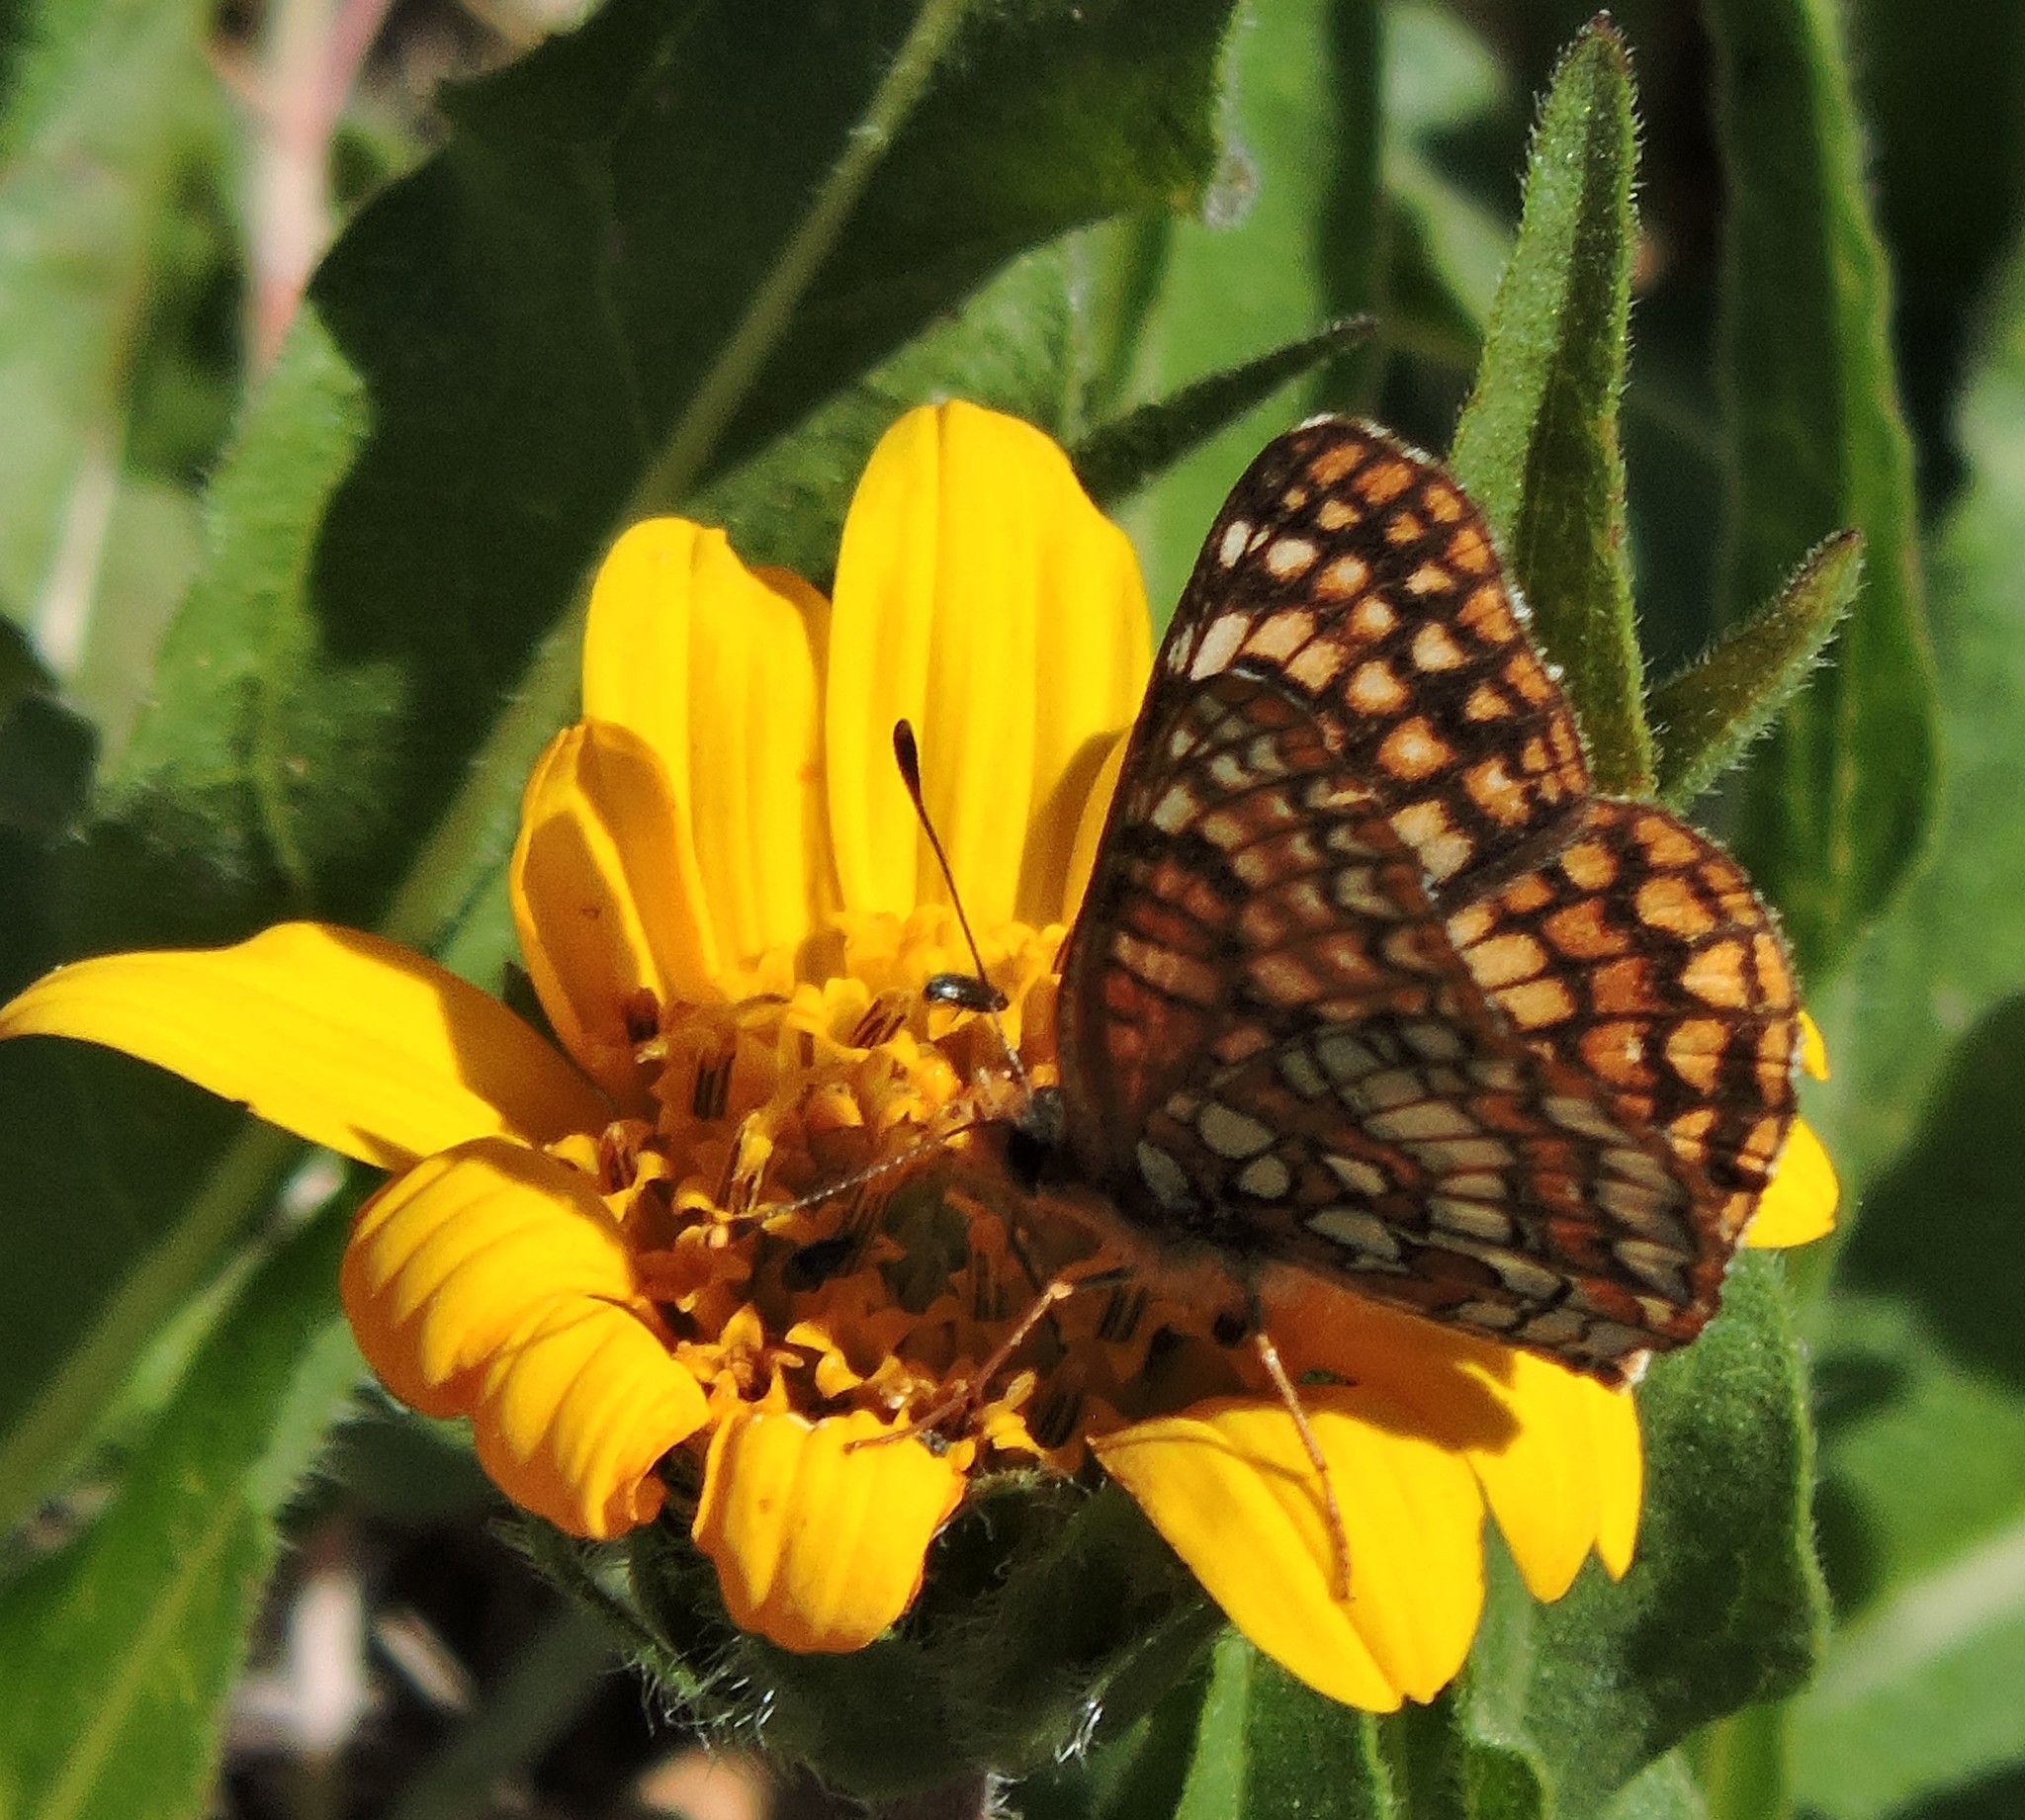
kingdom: Animalia
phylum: Arthropoda
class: Insecta
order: Lepidoptera
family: Nymphalidae
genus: Chlosyne
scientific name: Chlosyne palla
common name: Northern checkerspot
